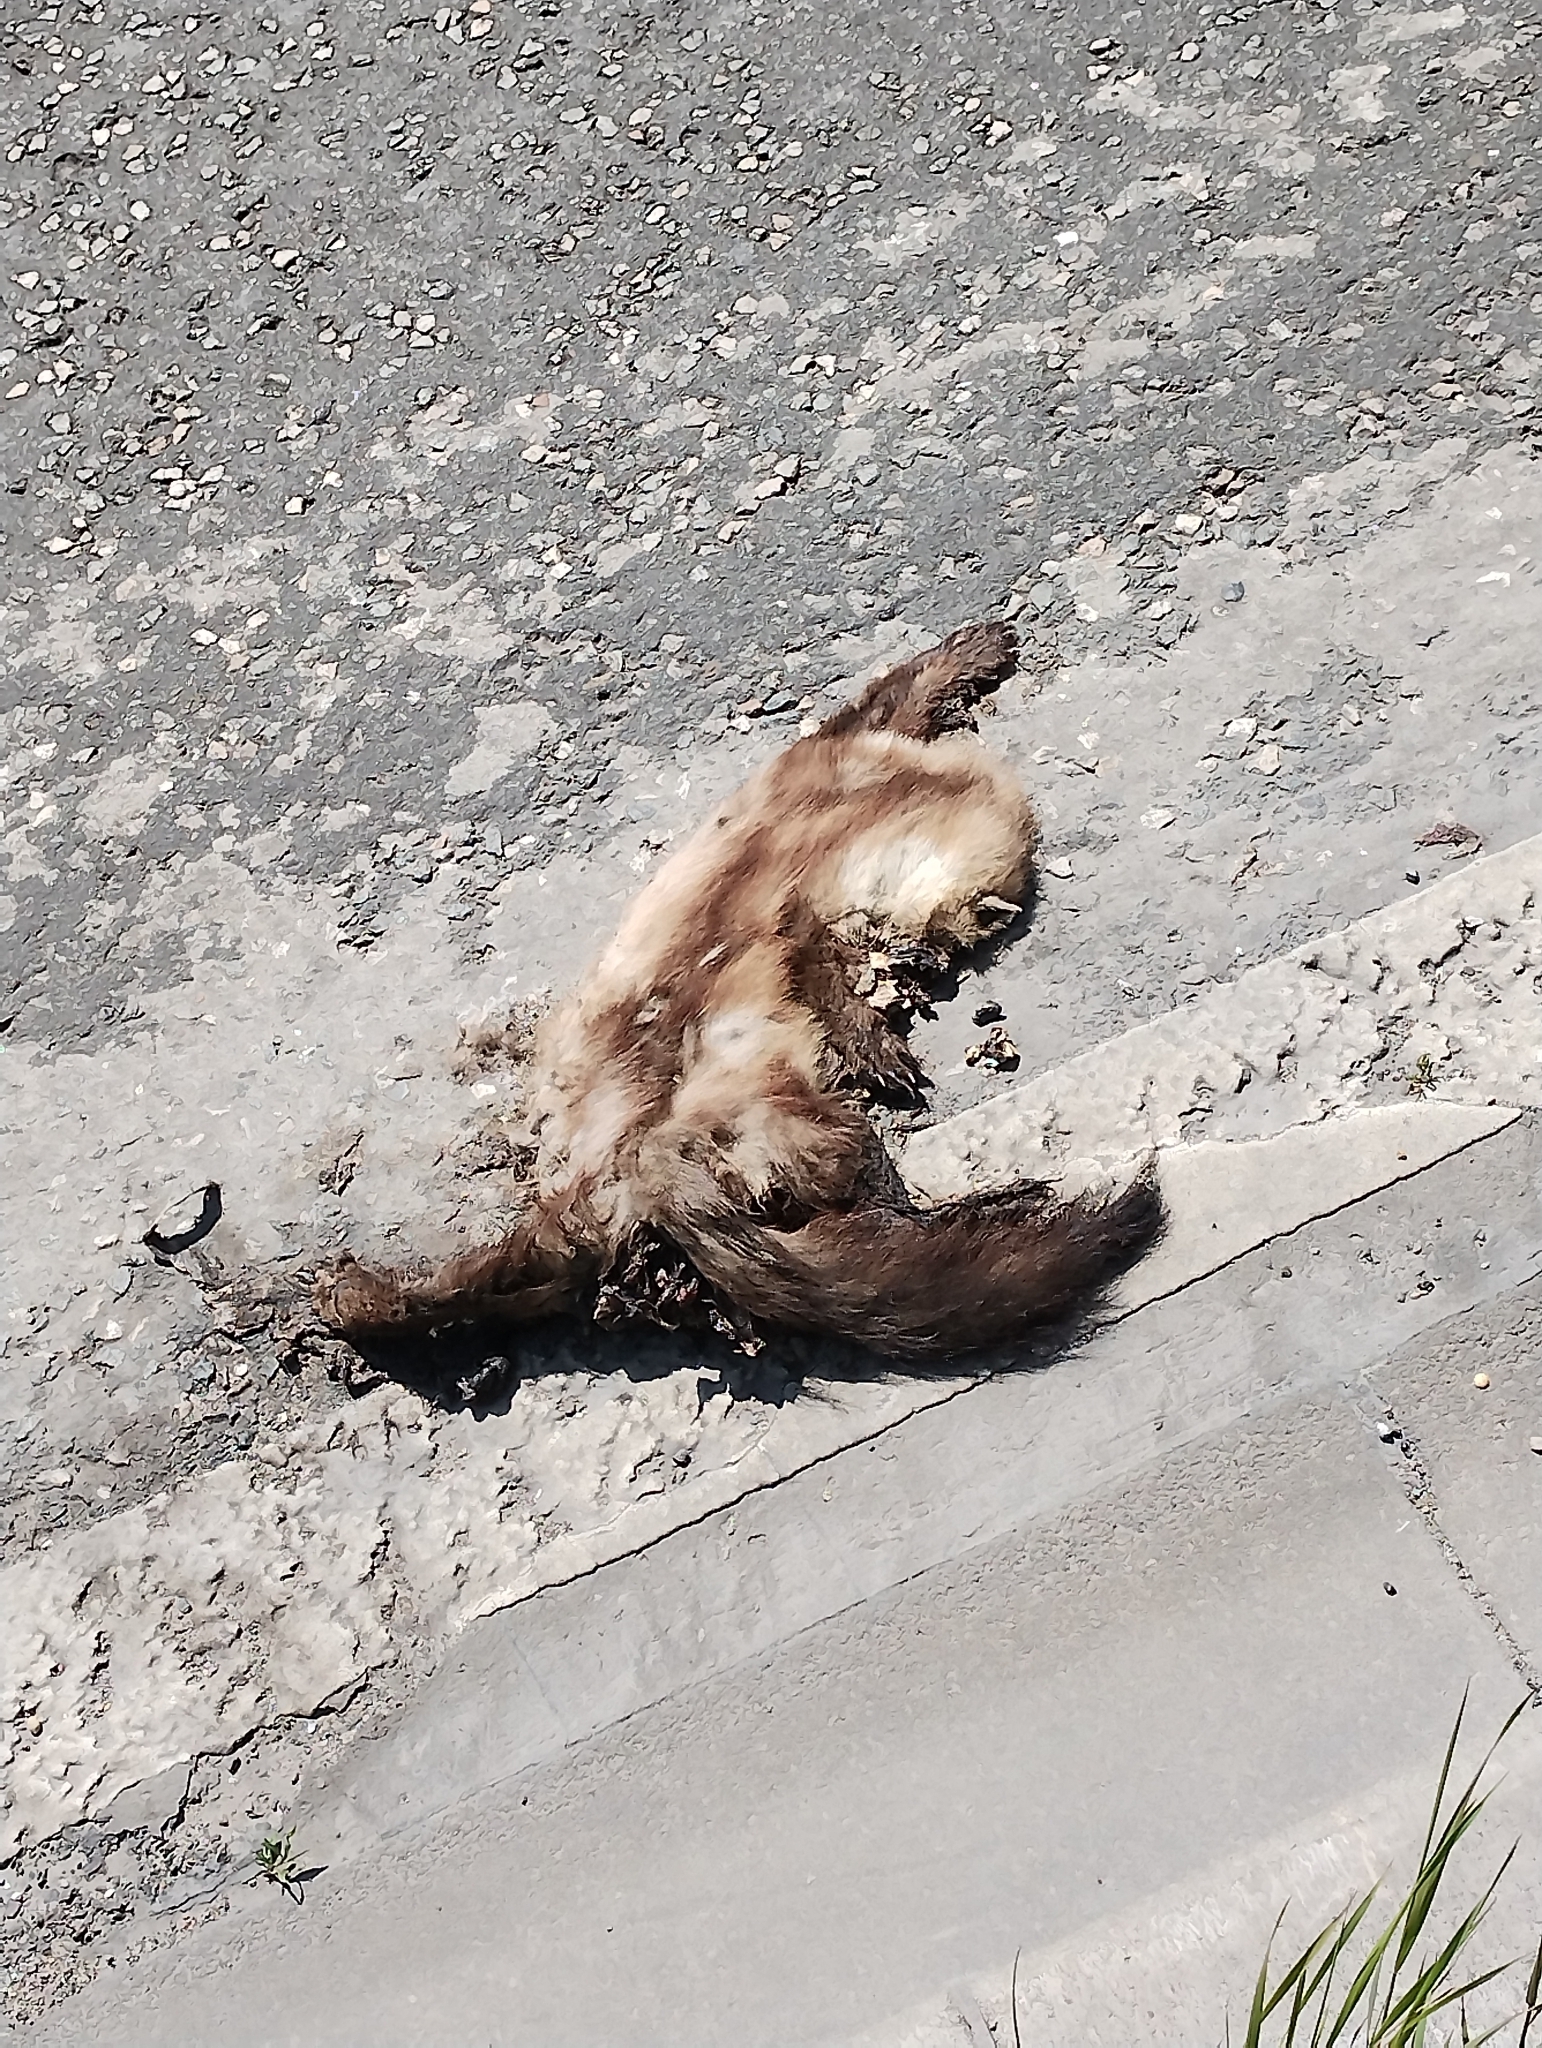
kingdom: Animalia
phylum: Chordata
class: Mammalia
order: Carnivora
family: Mustelidae
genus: Martes
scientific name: Martes foina
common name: Beech marten
